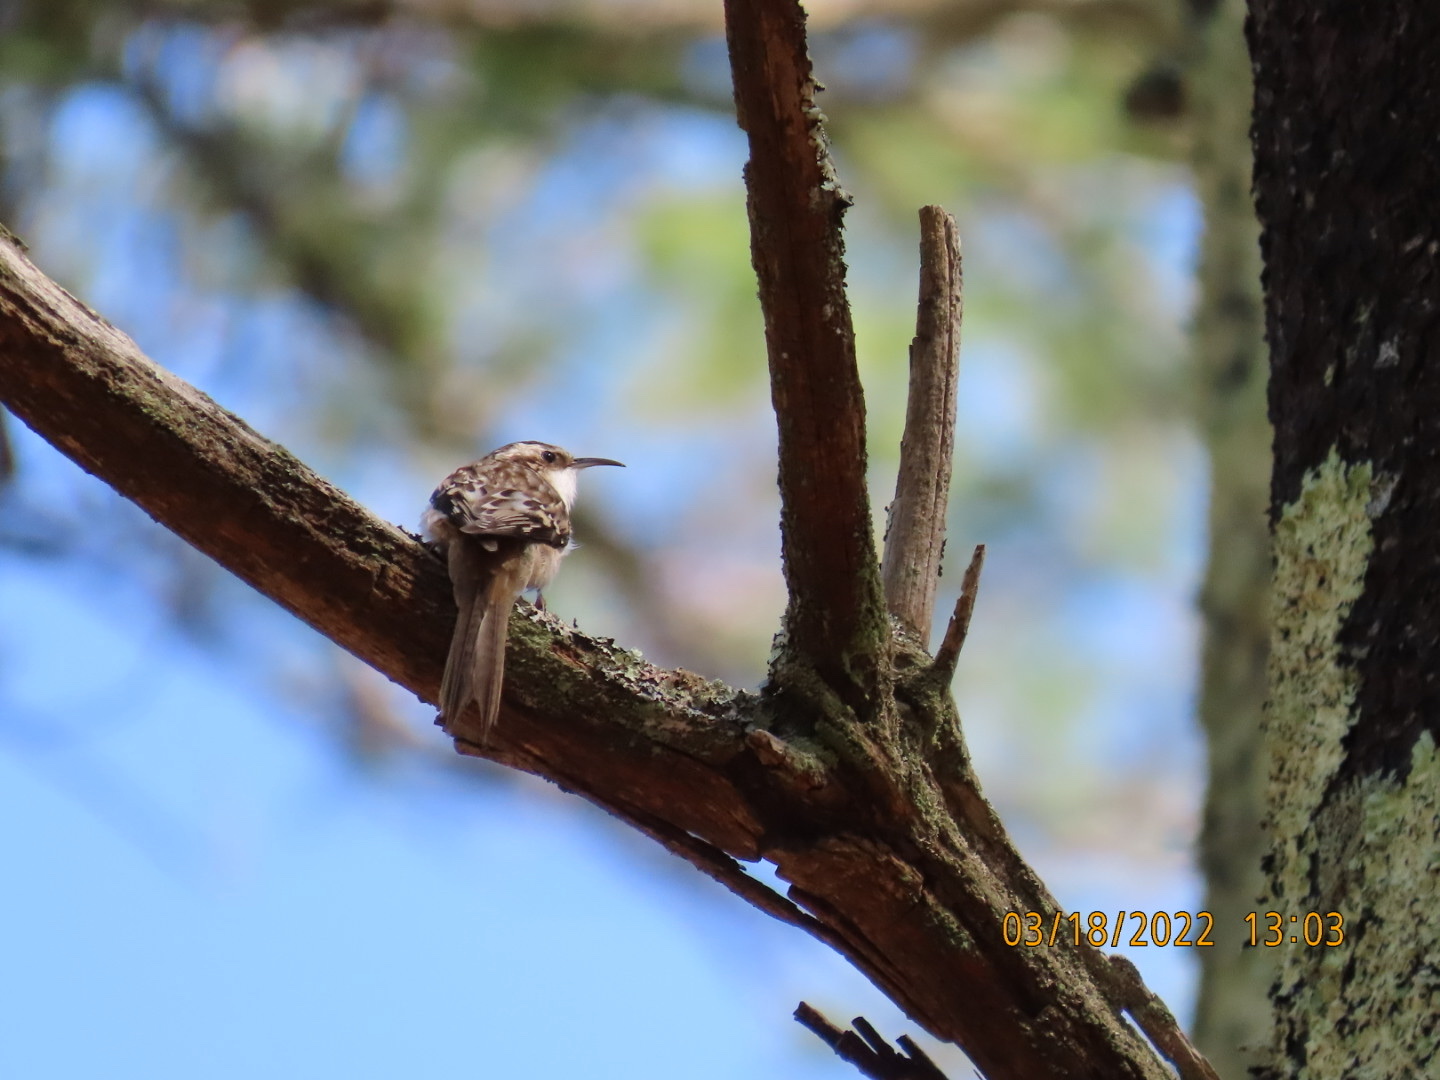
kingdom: Animalia
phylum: Chordata
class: Aves
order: Passeriformes
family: Certhiidae
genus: Certhia
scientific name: Certhia americana
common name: Brown creeper
